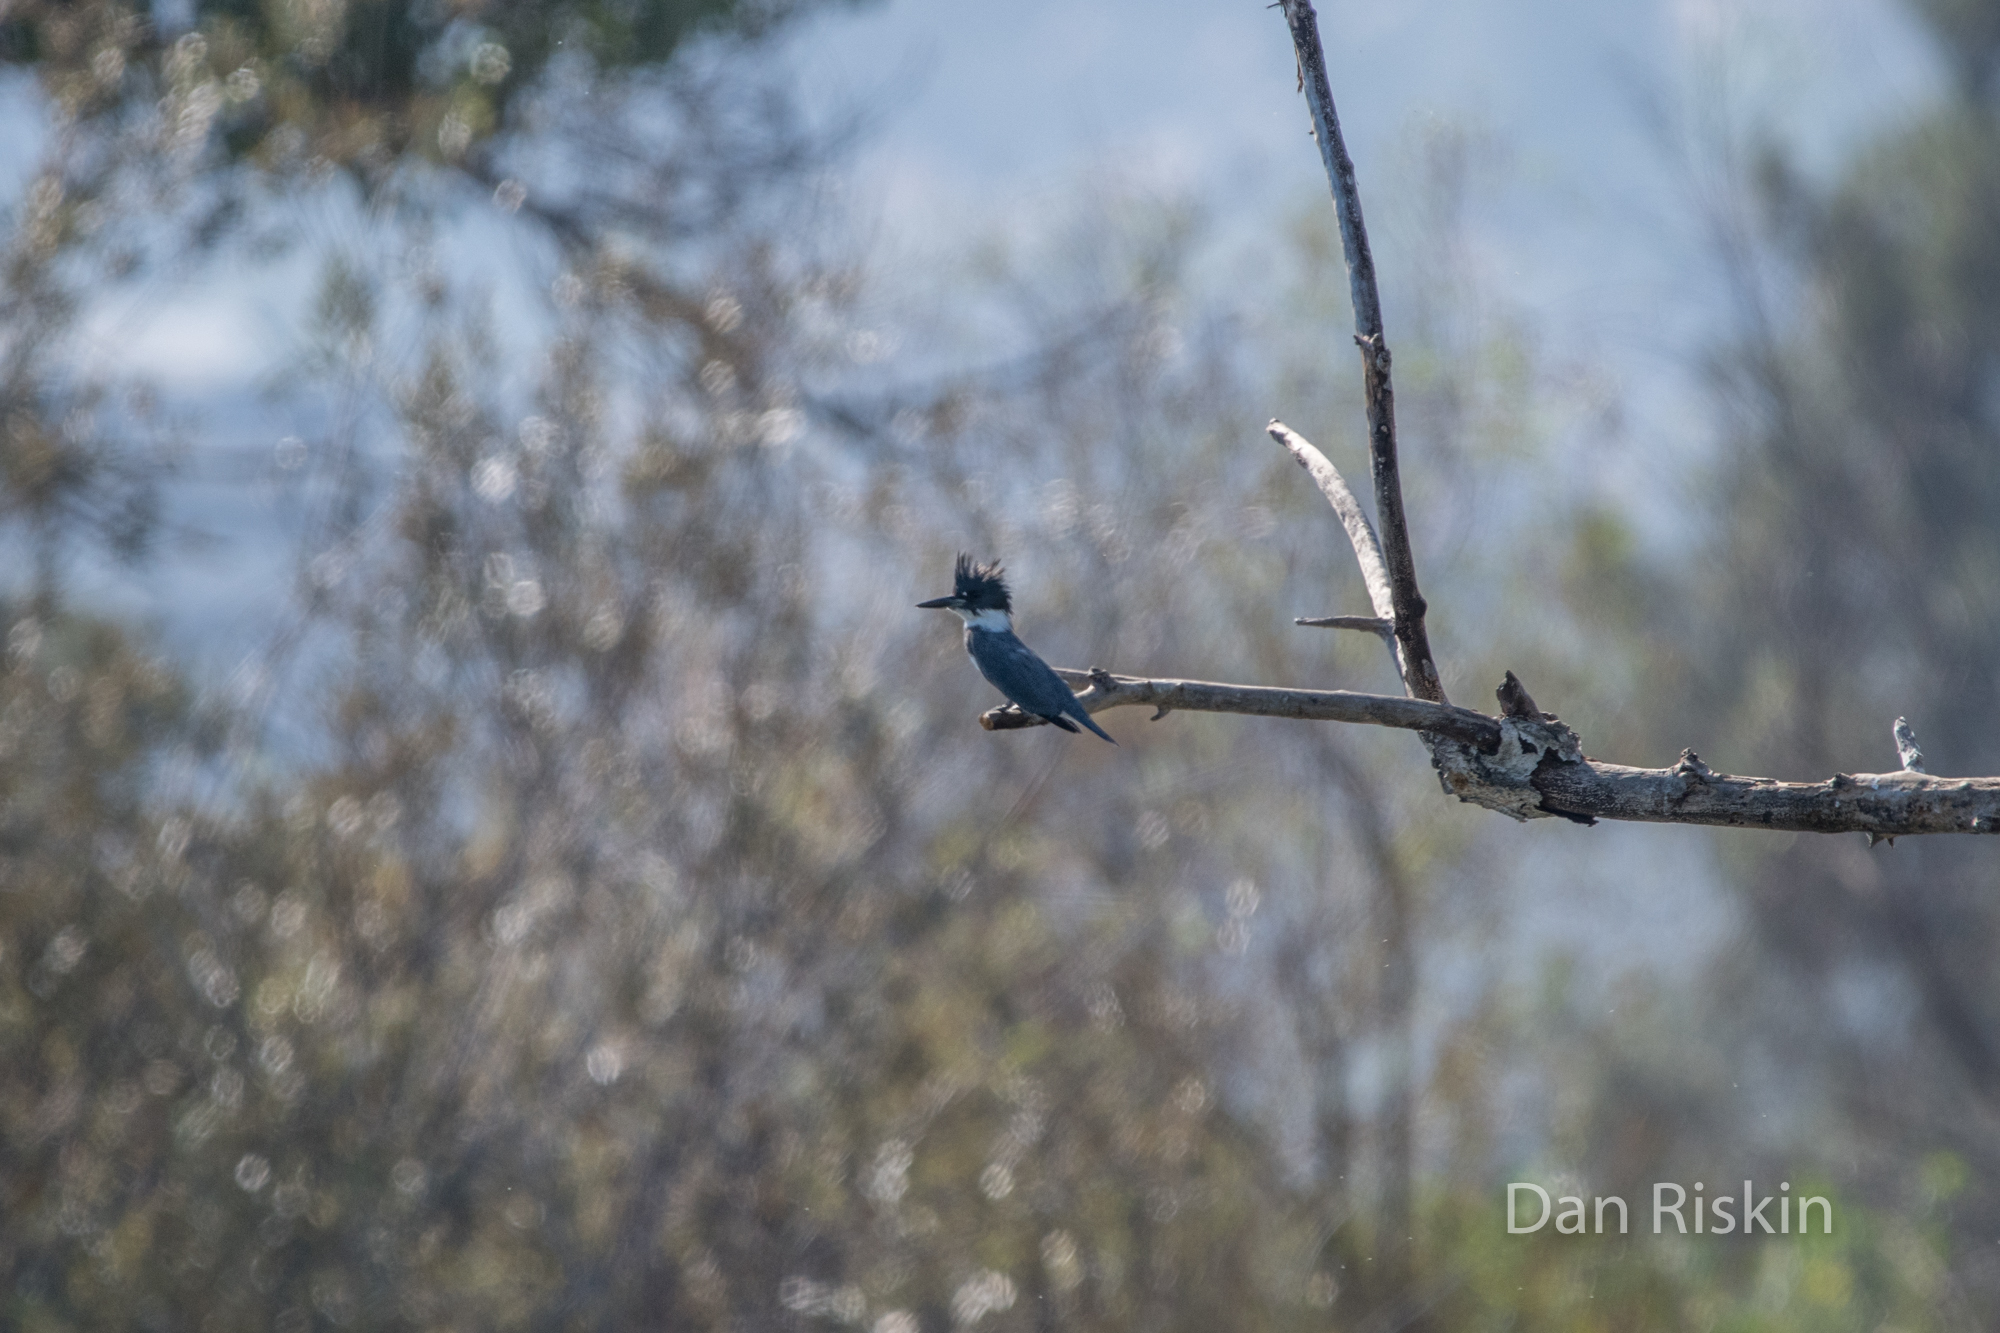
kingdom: Animalia
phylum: Chordata
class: Aves
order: Coraciiformes
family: Alcedinidae
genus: Megaceryle
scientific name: Megaceryle alcyon
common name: Belted kingfisher
